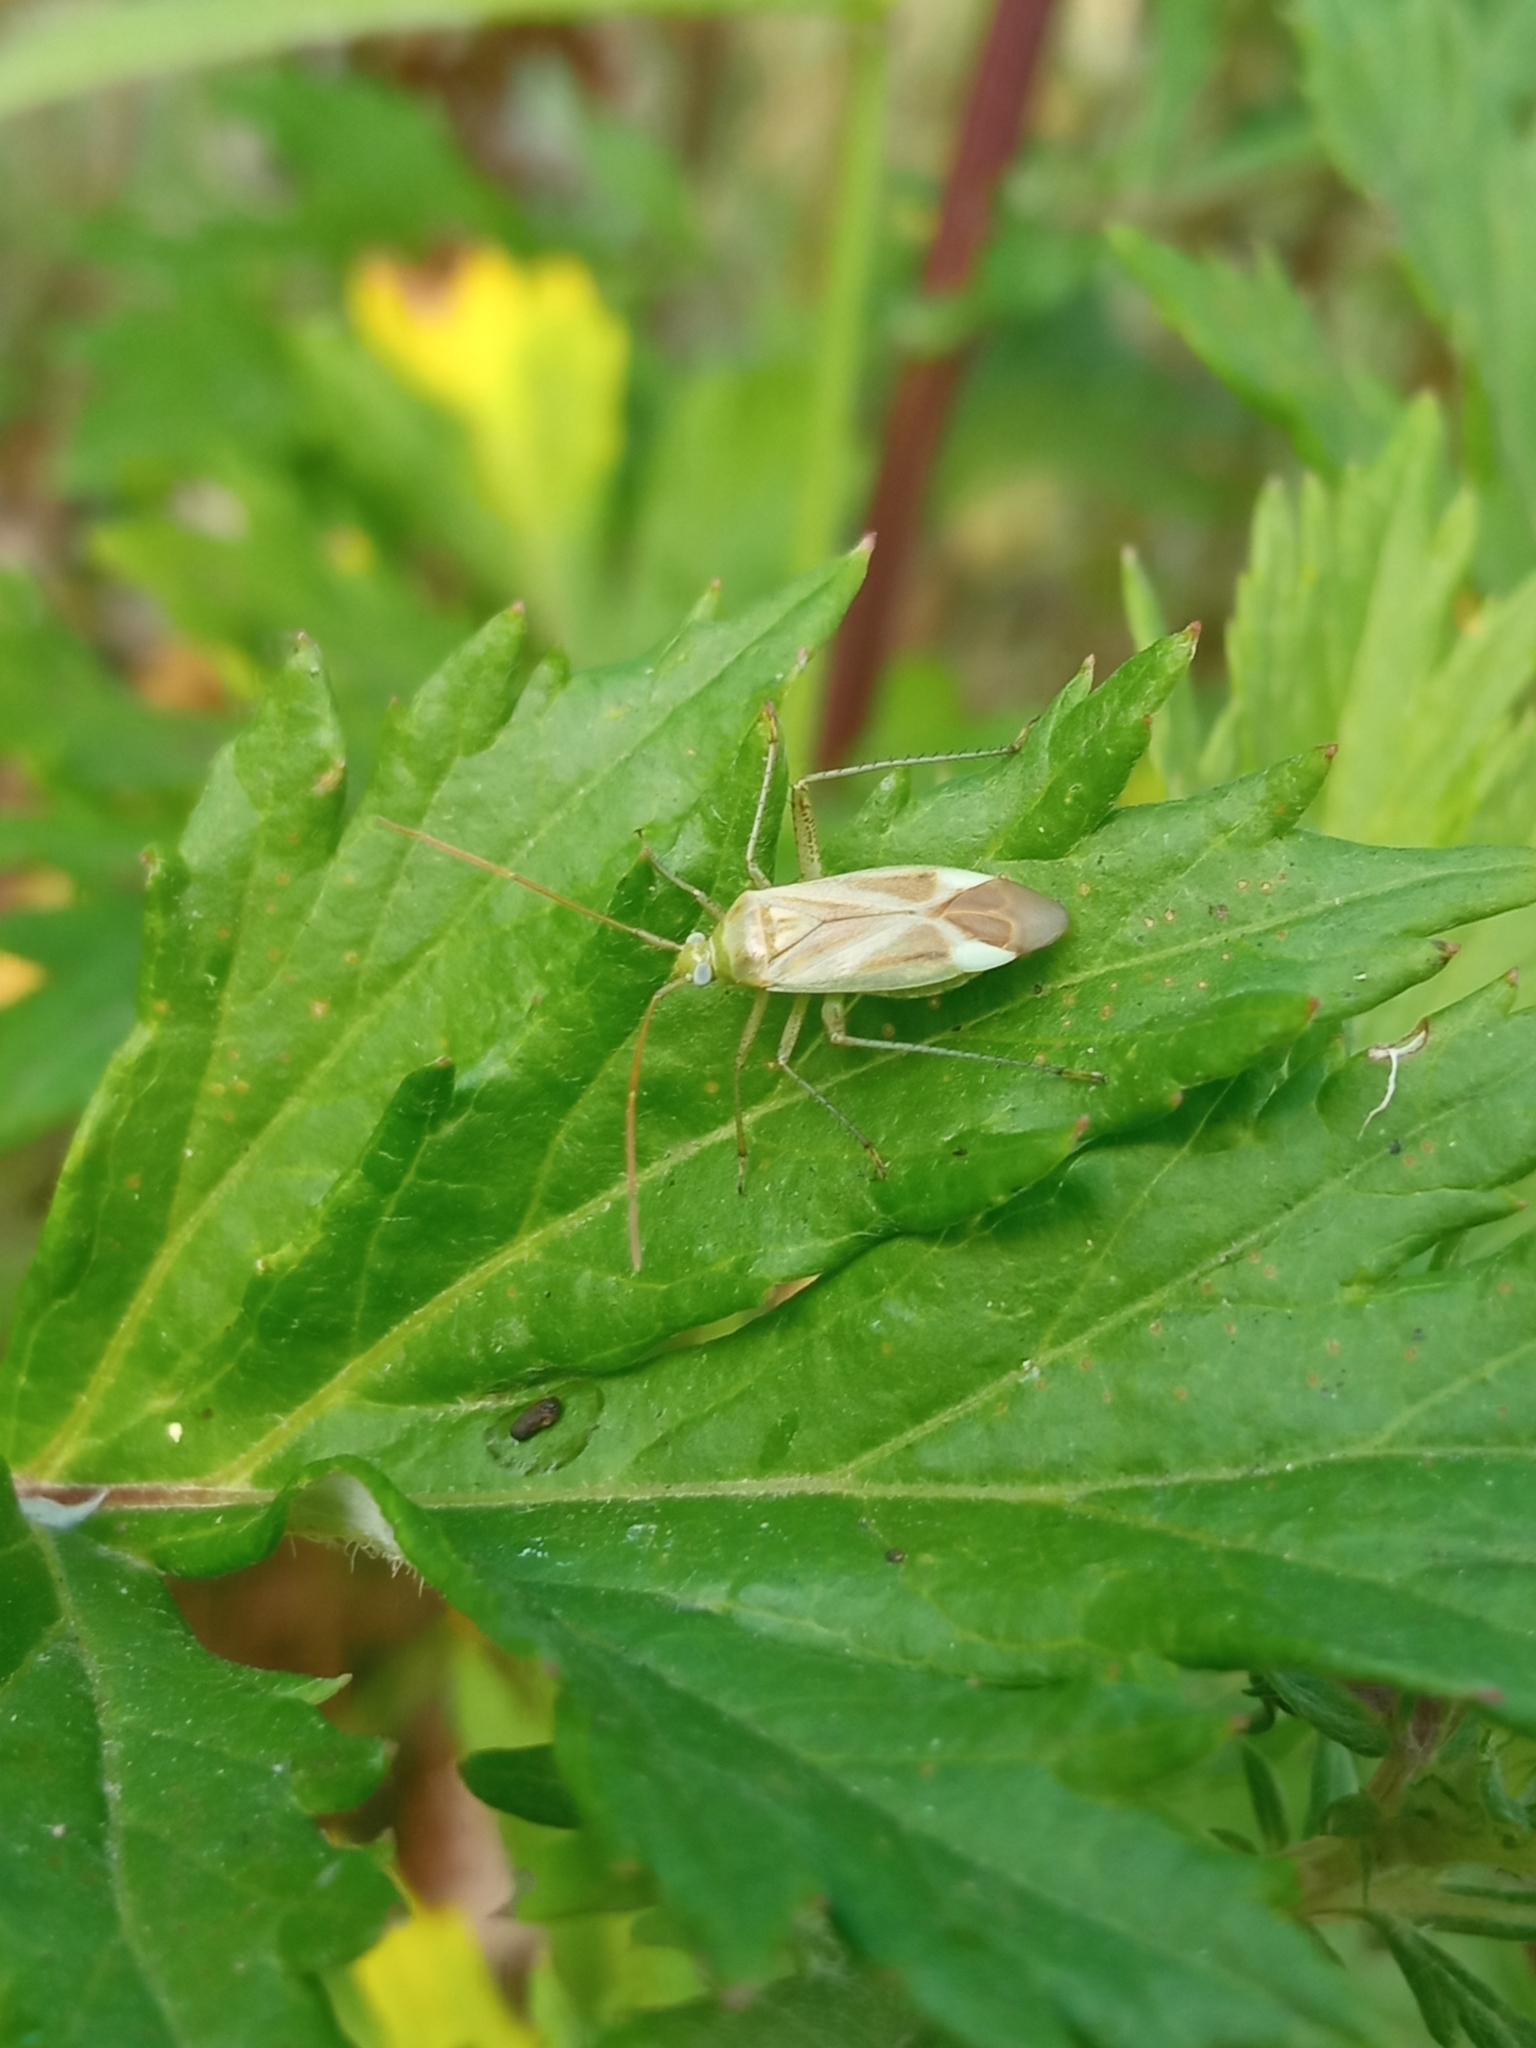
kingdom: Animalia
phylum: Arthropoda
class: Insecta
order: Hemiptera
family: Miridae
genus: Adelphocoris
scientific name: Adelphocoris lineolatus
